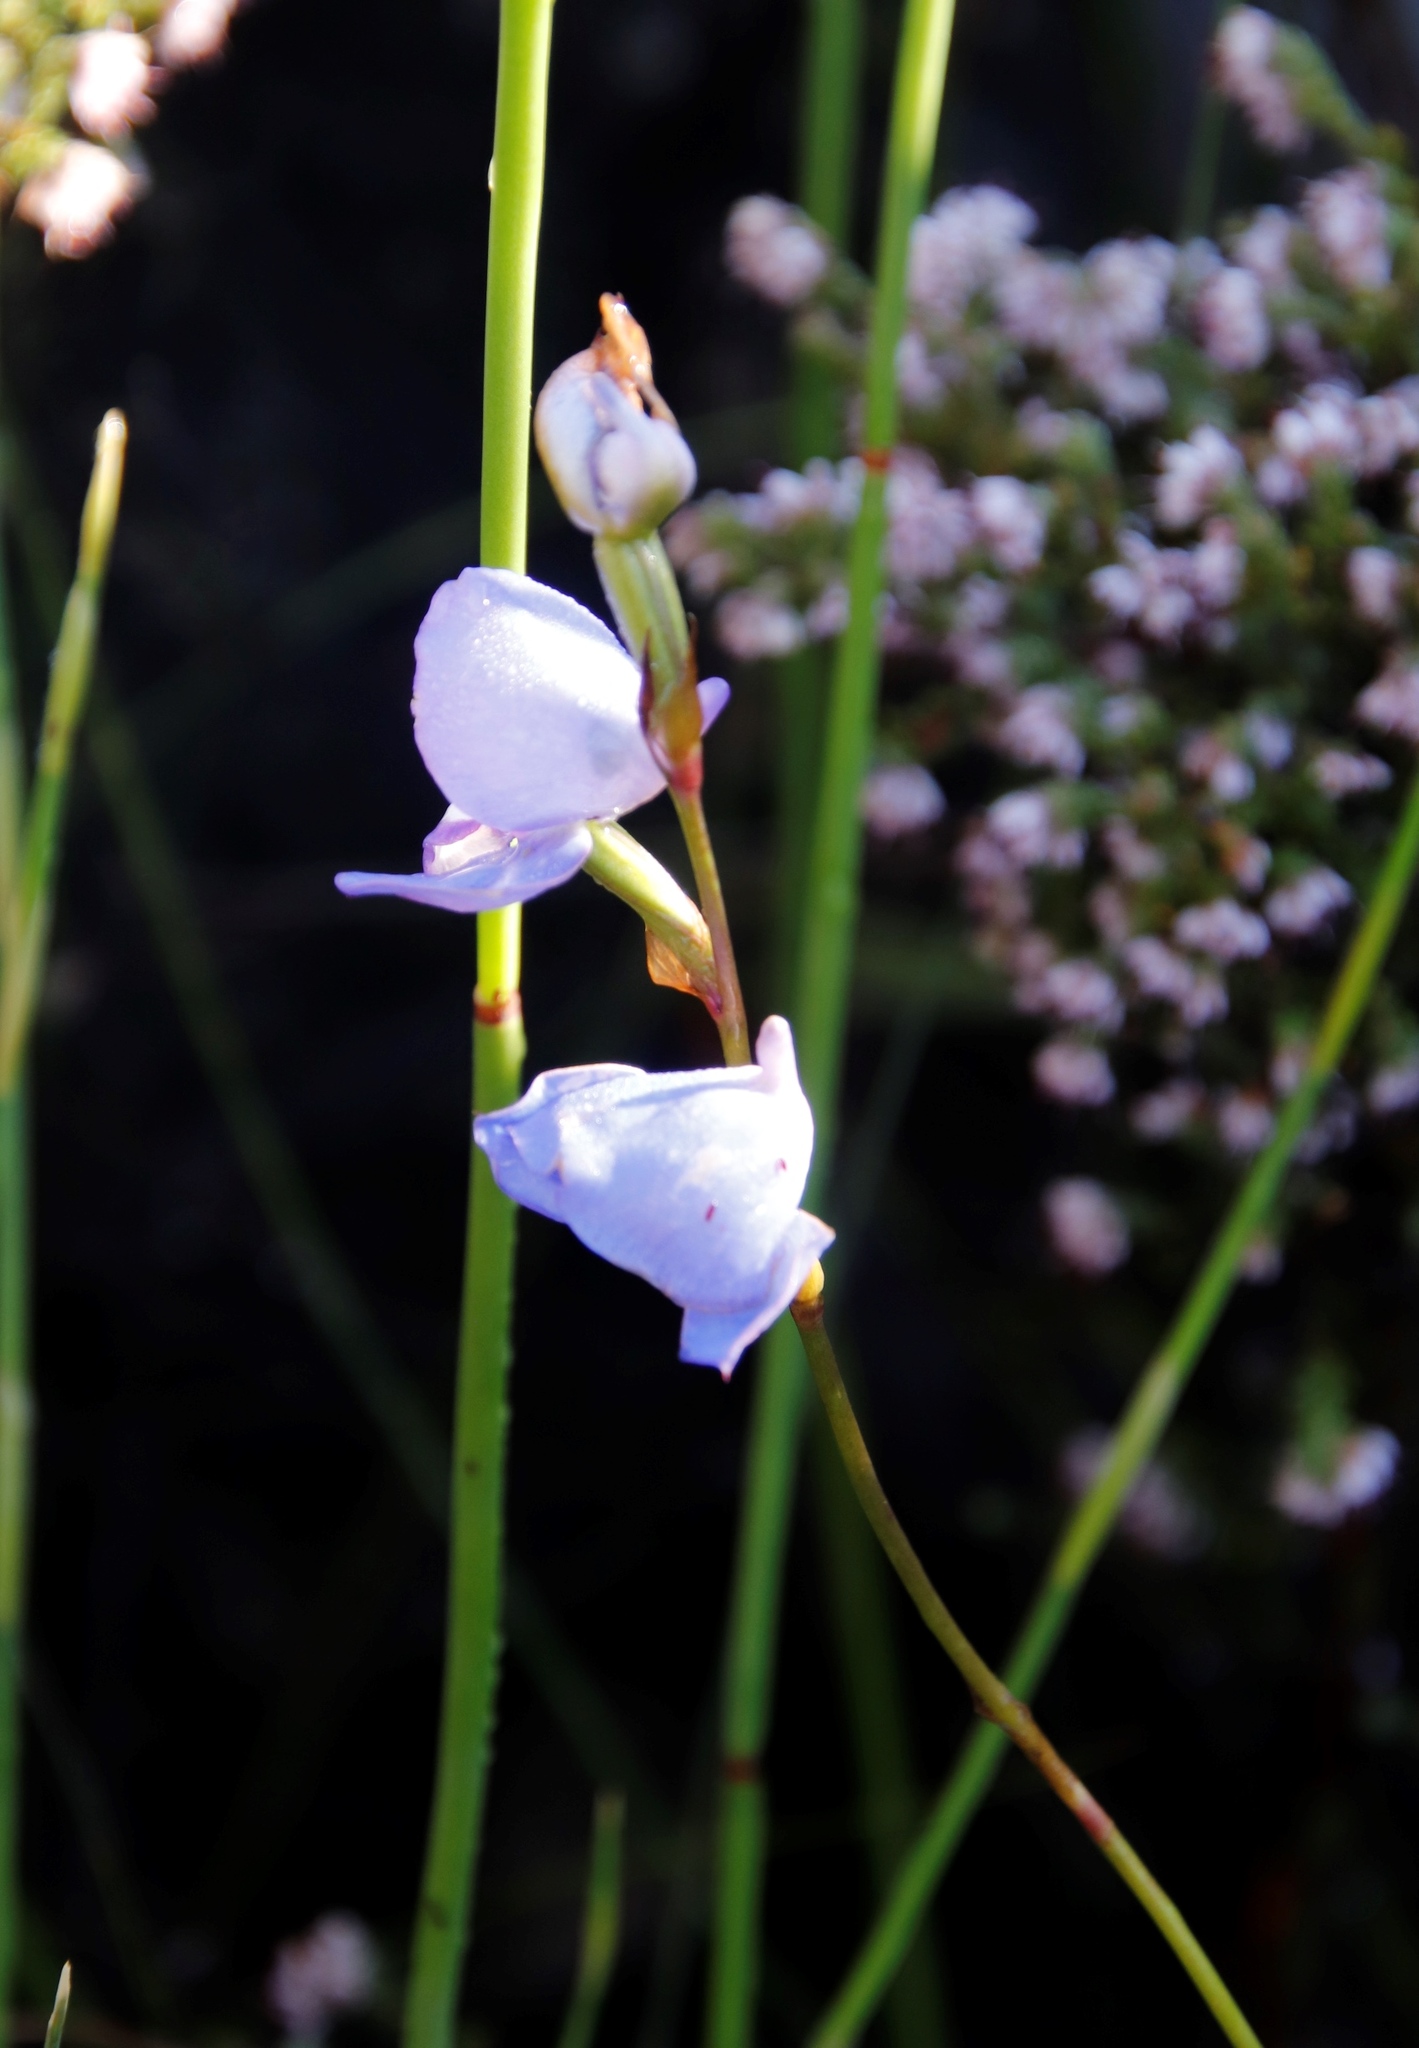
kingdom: Plantae
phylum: Tracheophyta
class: Liliopsida
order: Asparagales
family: Orchidaceae
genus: Disa
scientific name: Disa graminifolia
